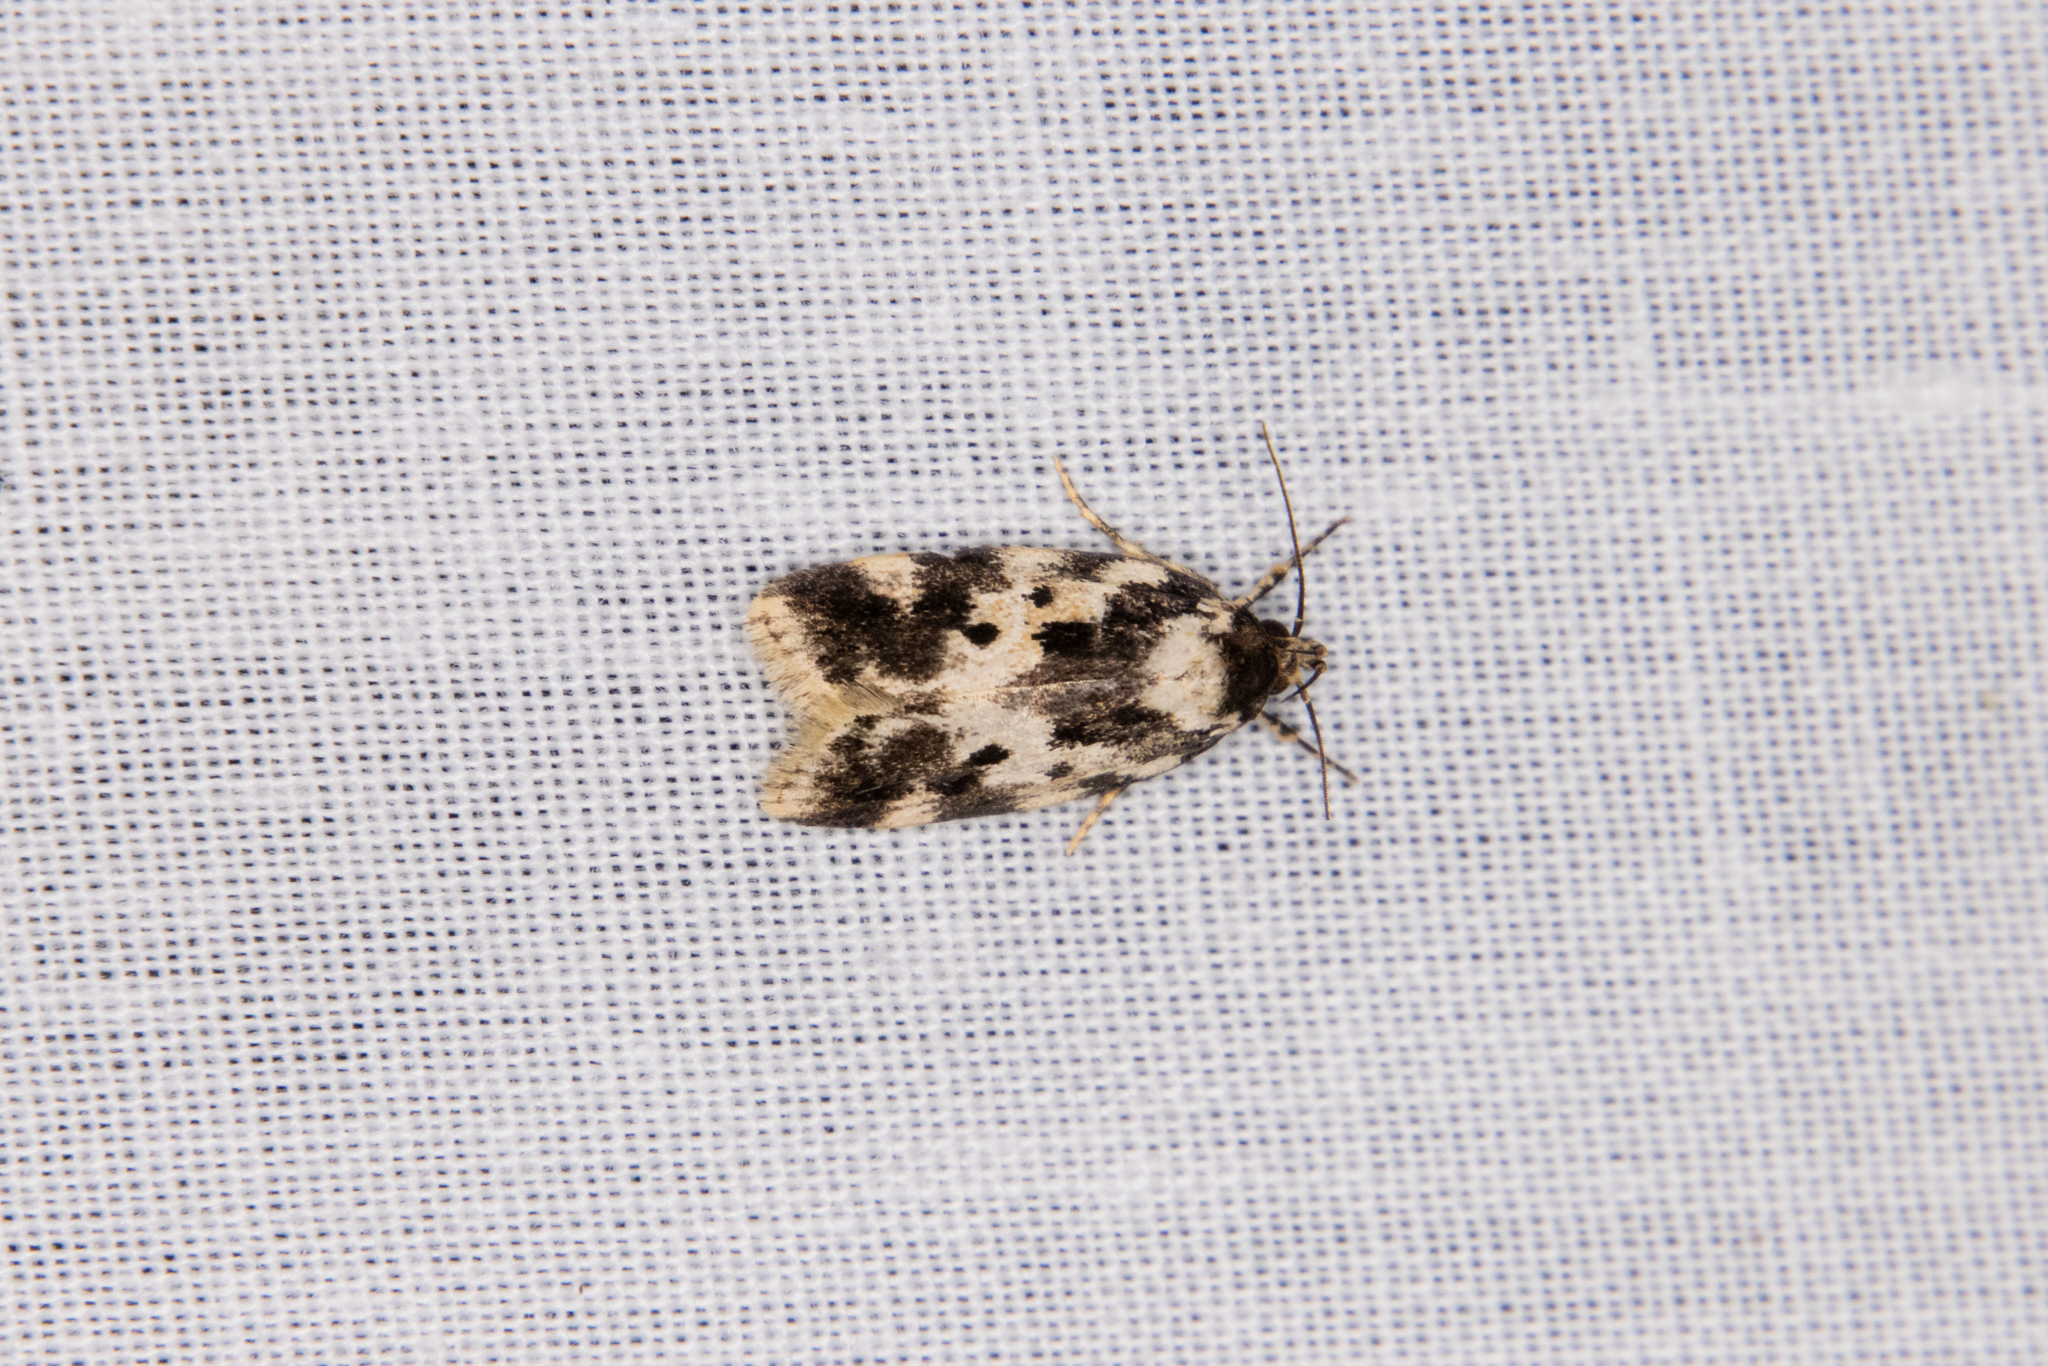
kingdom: Animalia
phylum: Arthropoda
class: Insecta
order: Lepidoptera
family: Oecophoridae
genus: Barea
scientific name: Barea confusella
